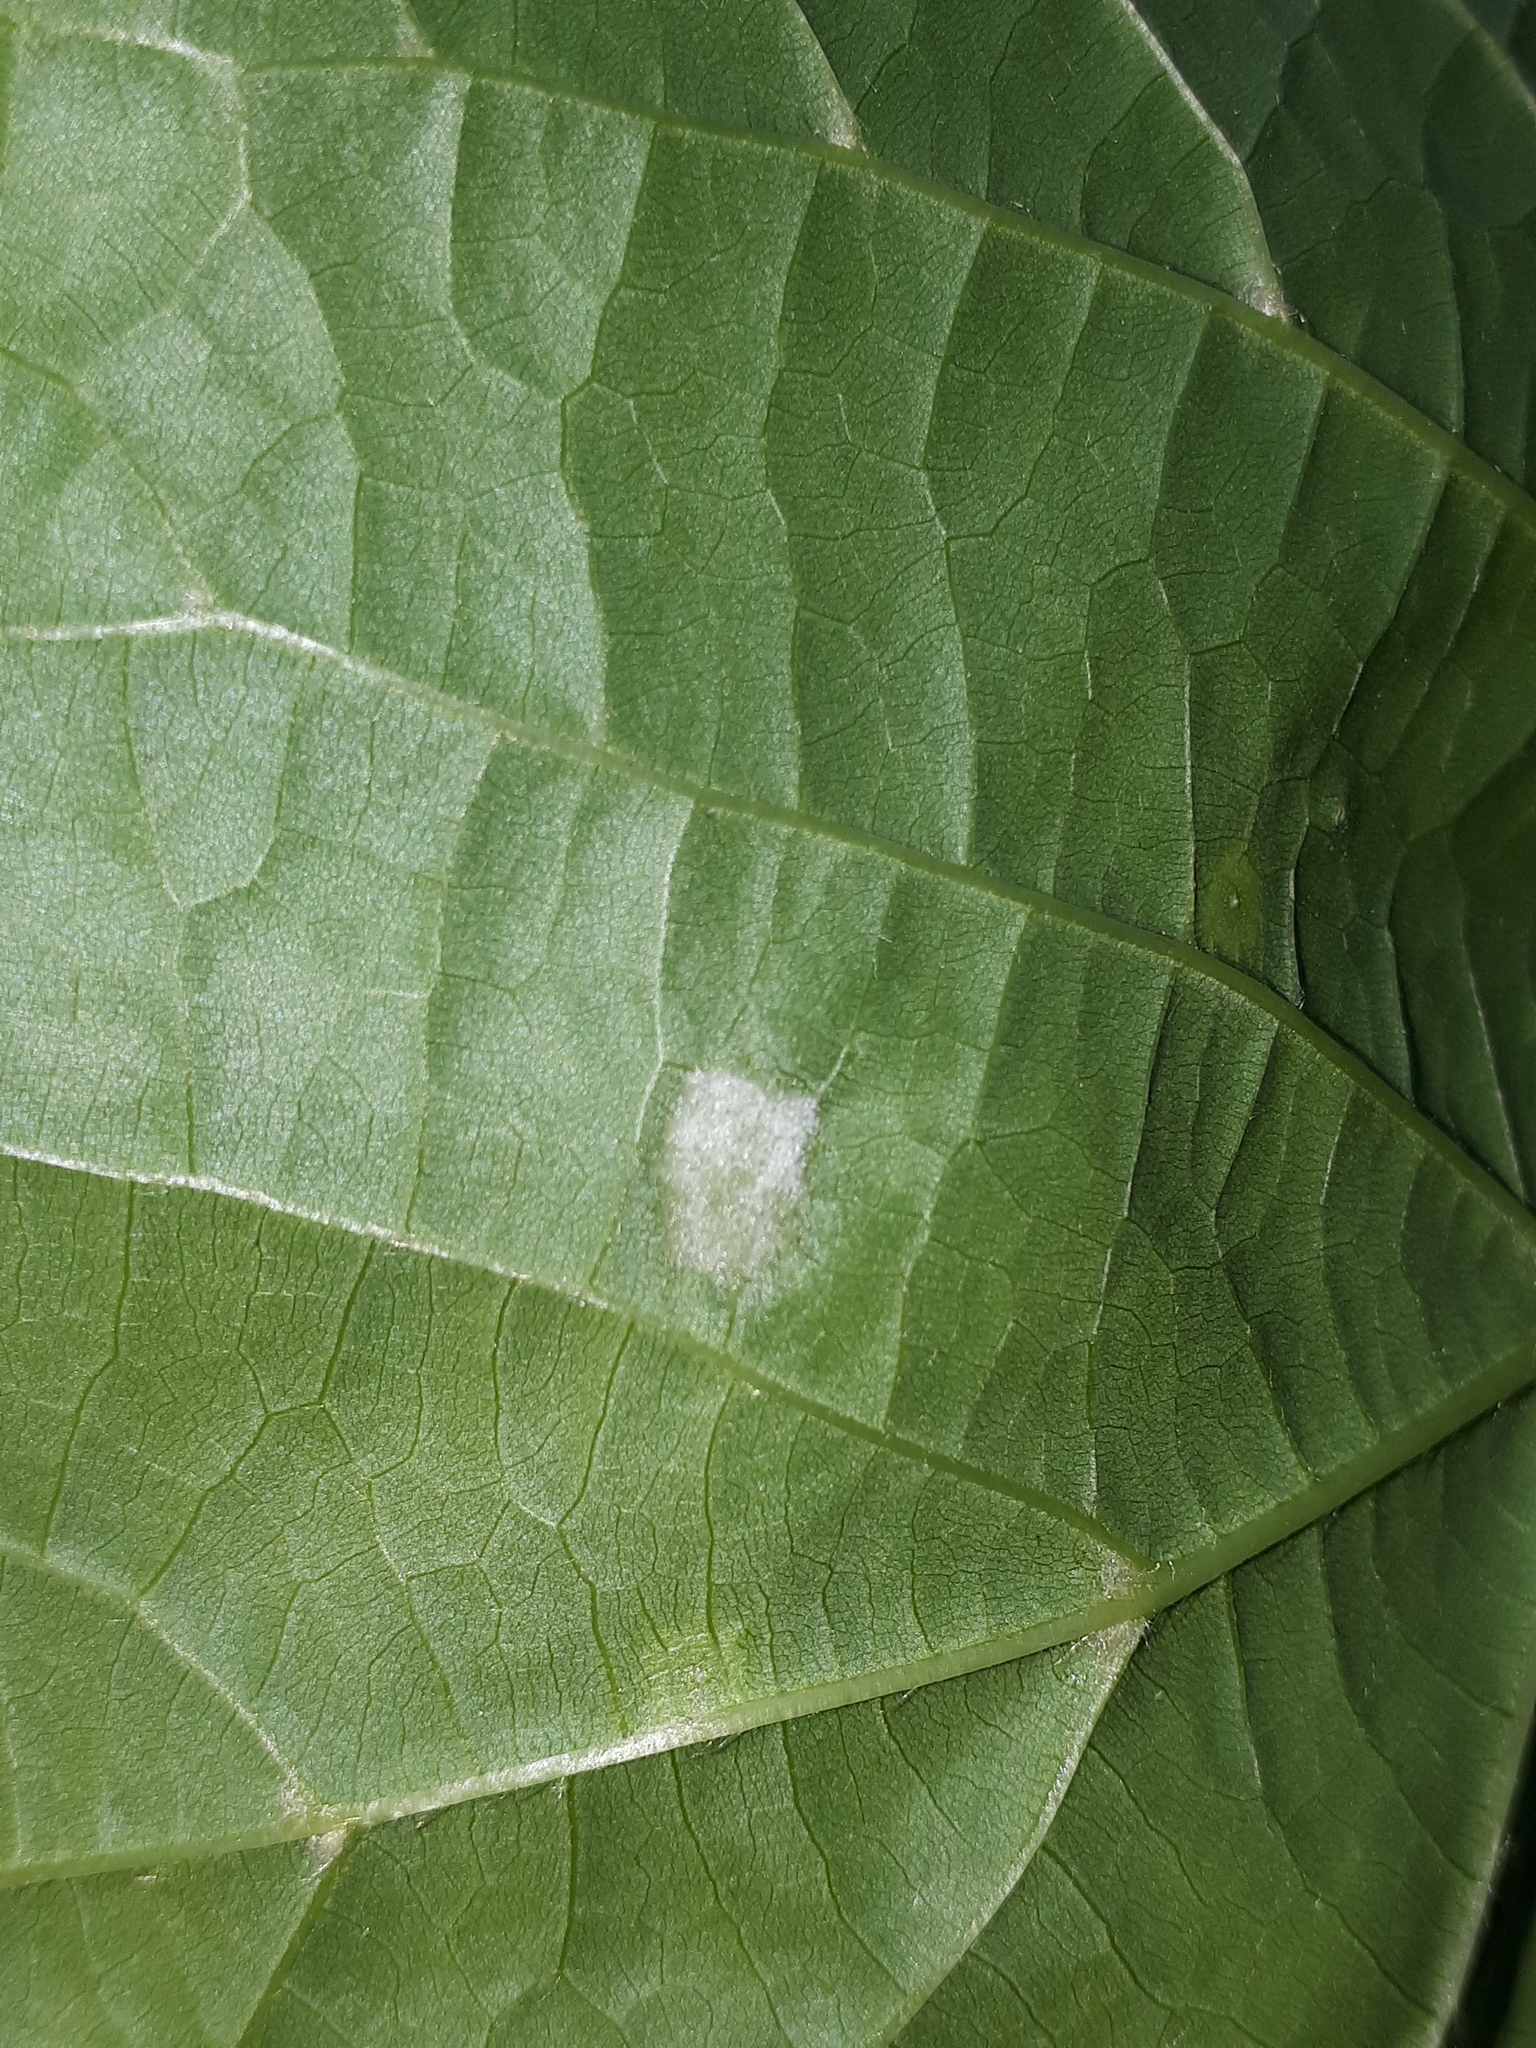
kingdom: Animalia
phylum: Arthropoda
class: Arachnida
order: Trombidiformes
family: Eriophyidae
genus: Eriophyes
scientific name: Eriophyes leiosoma
